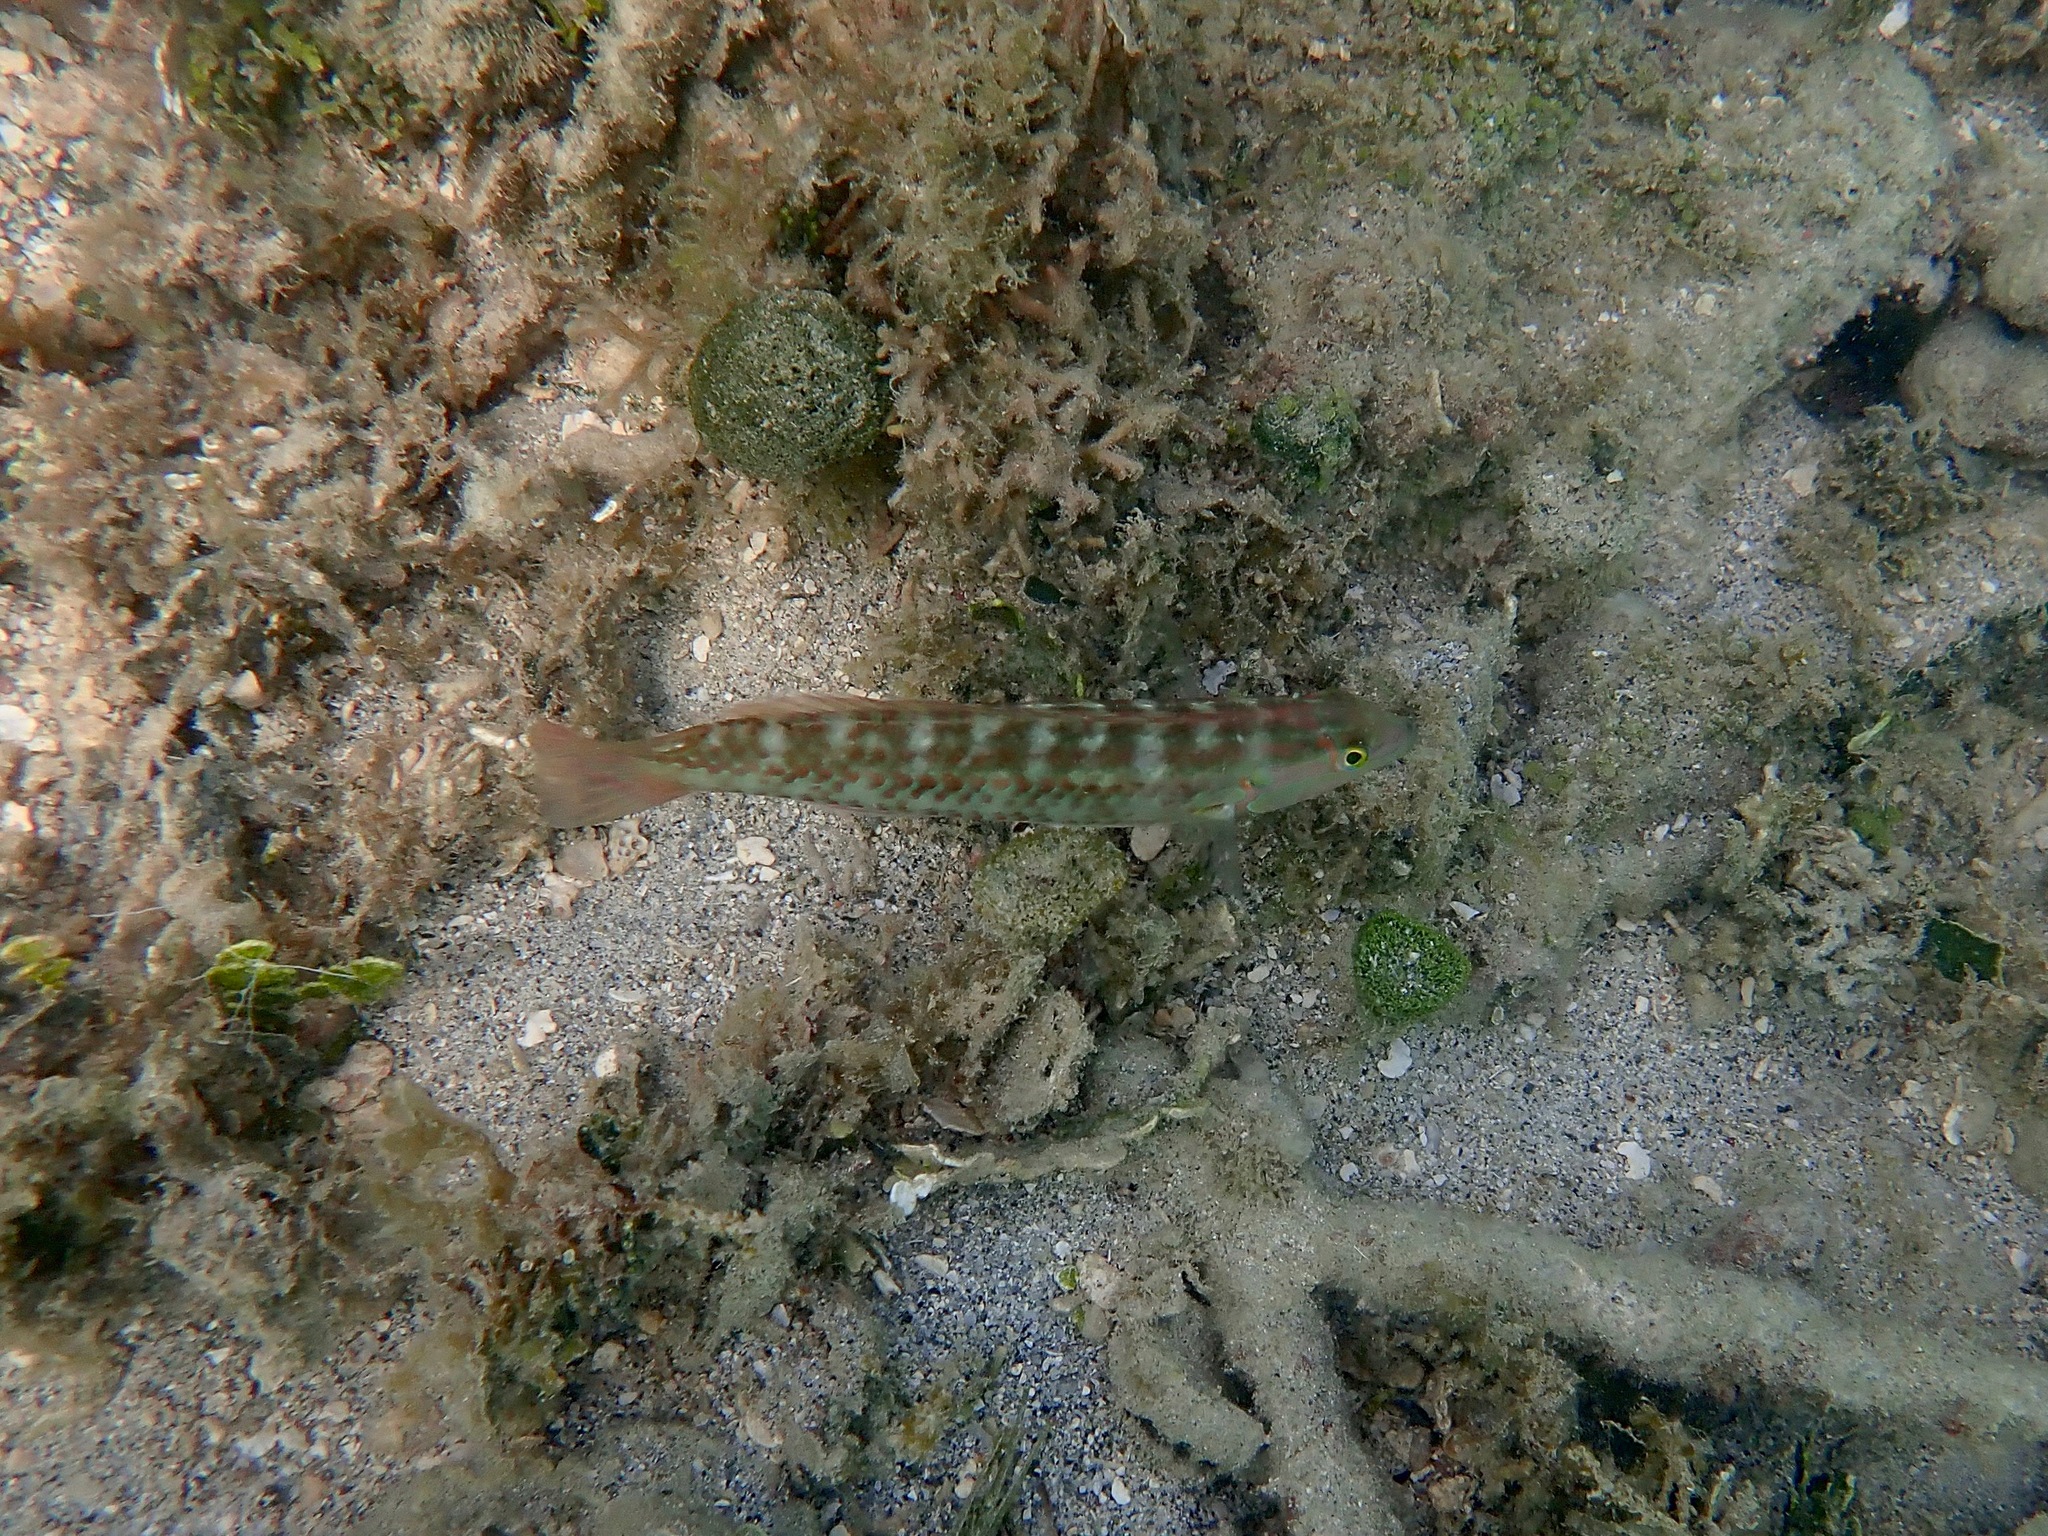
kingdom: Animalia
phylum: Chordata
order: Perciformes
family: Labridae
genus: Halichoeres
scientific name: Halichoeres bivittatus
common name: Slippery dick
